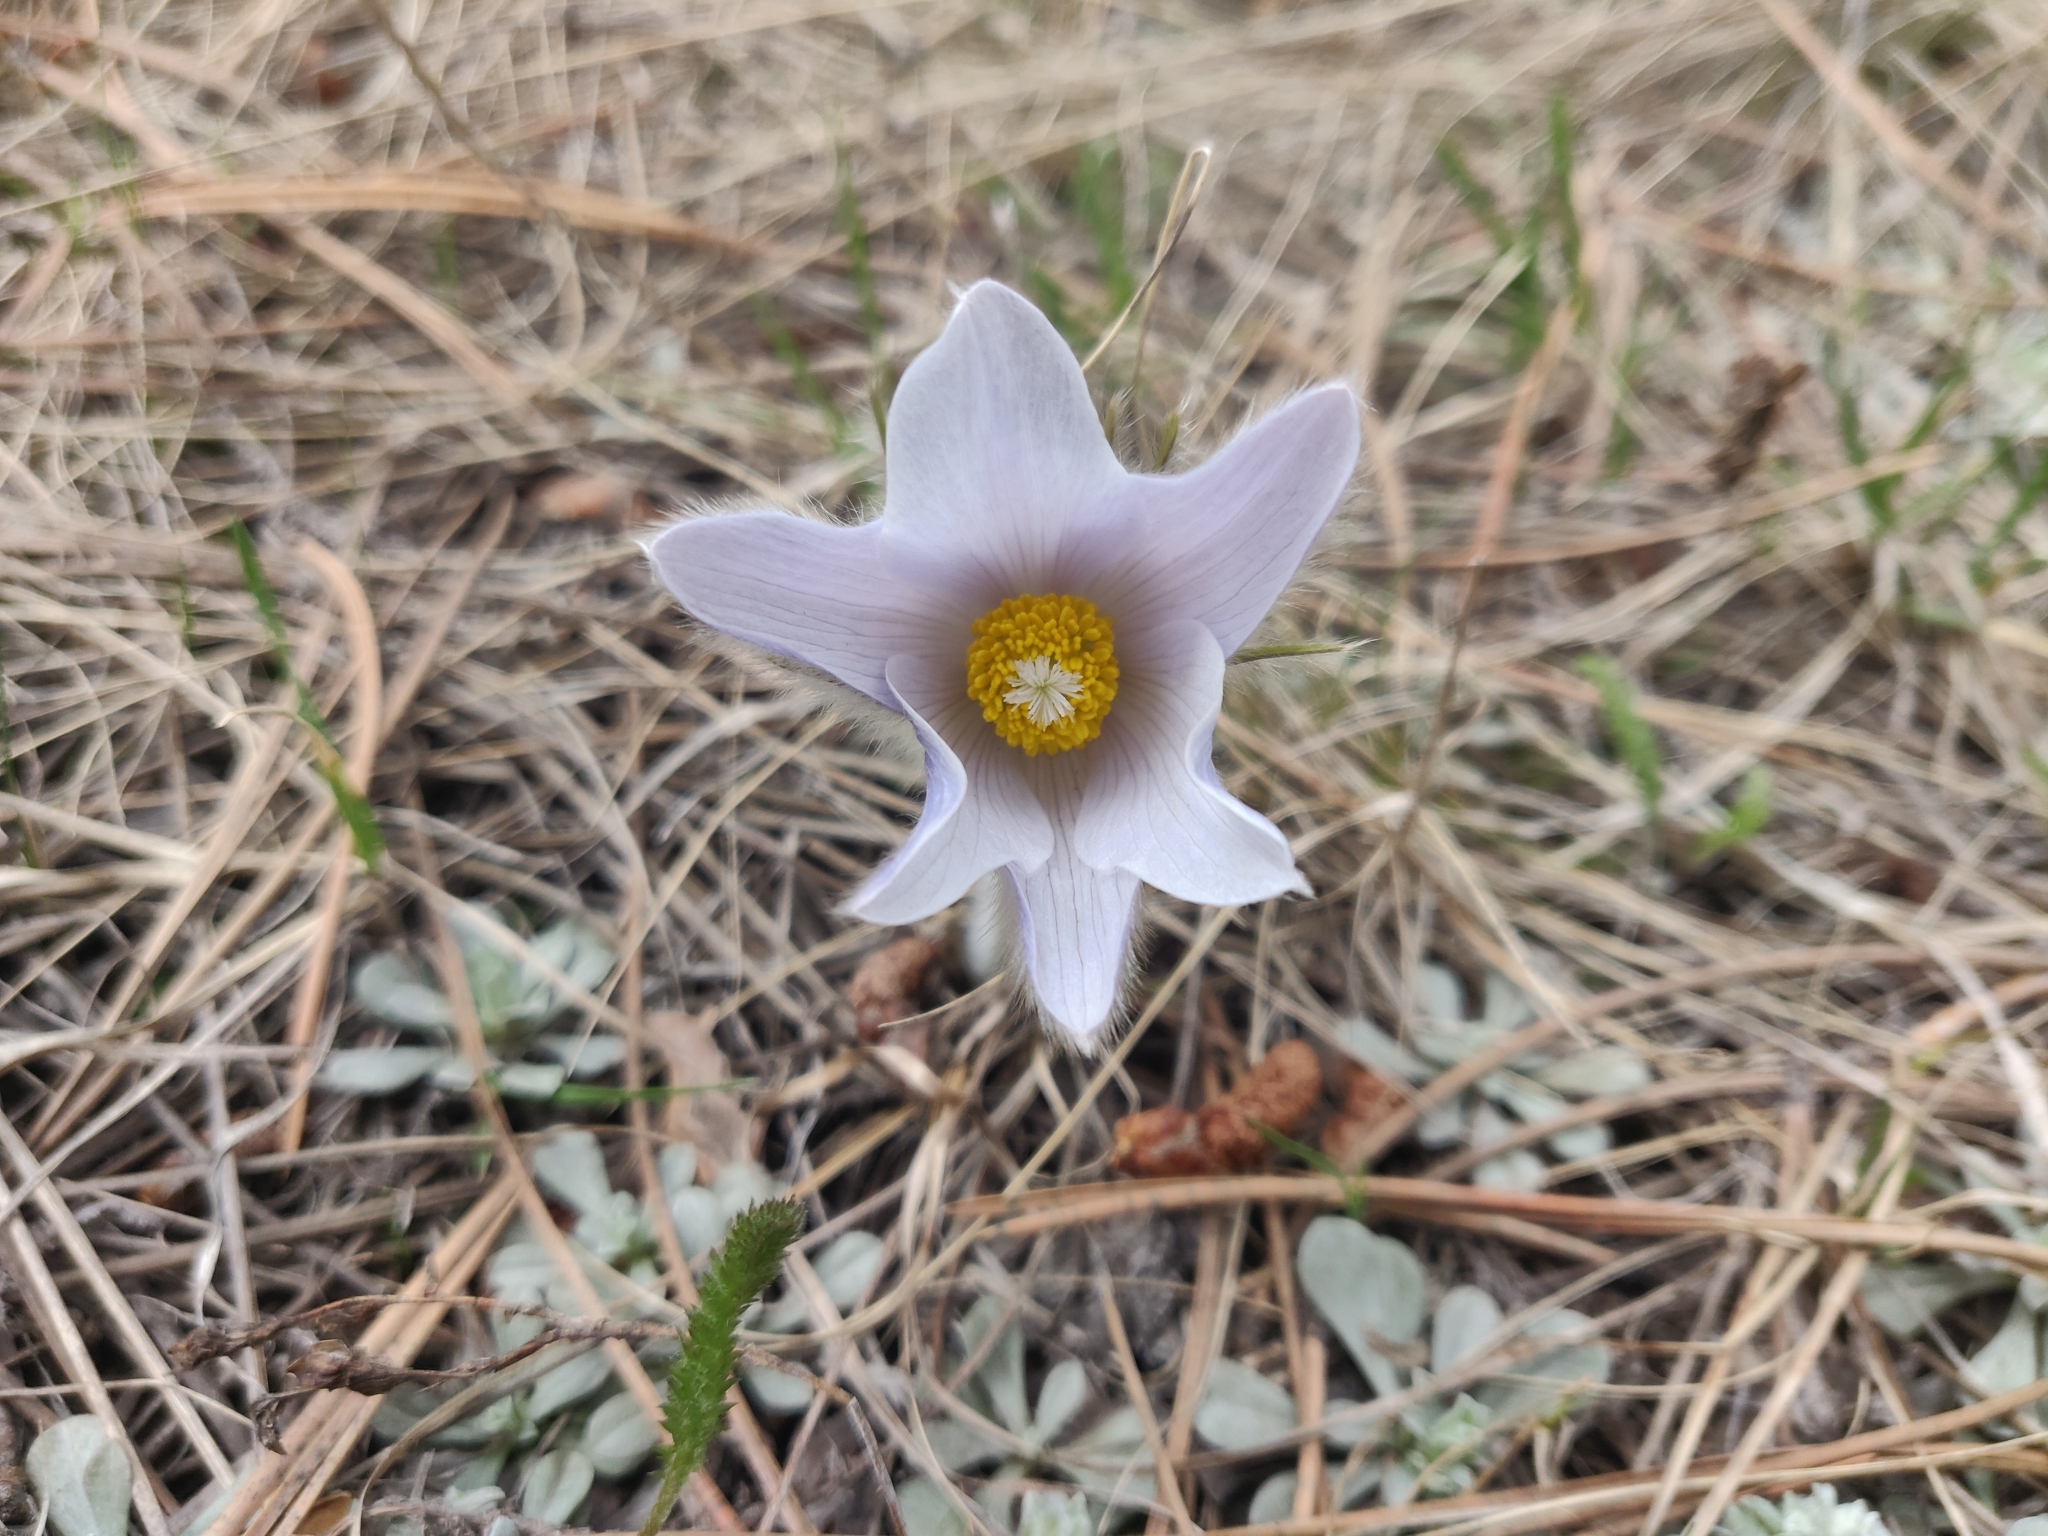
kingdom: Plantae
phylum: Tracheophyta
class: Magnoliopsida
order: Ranunculales
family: Ranunculaceae
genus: Pulsatilla
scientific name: Pulsatilla nuttalliana
